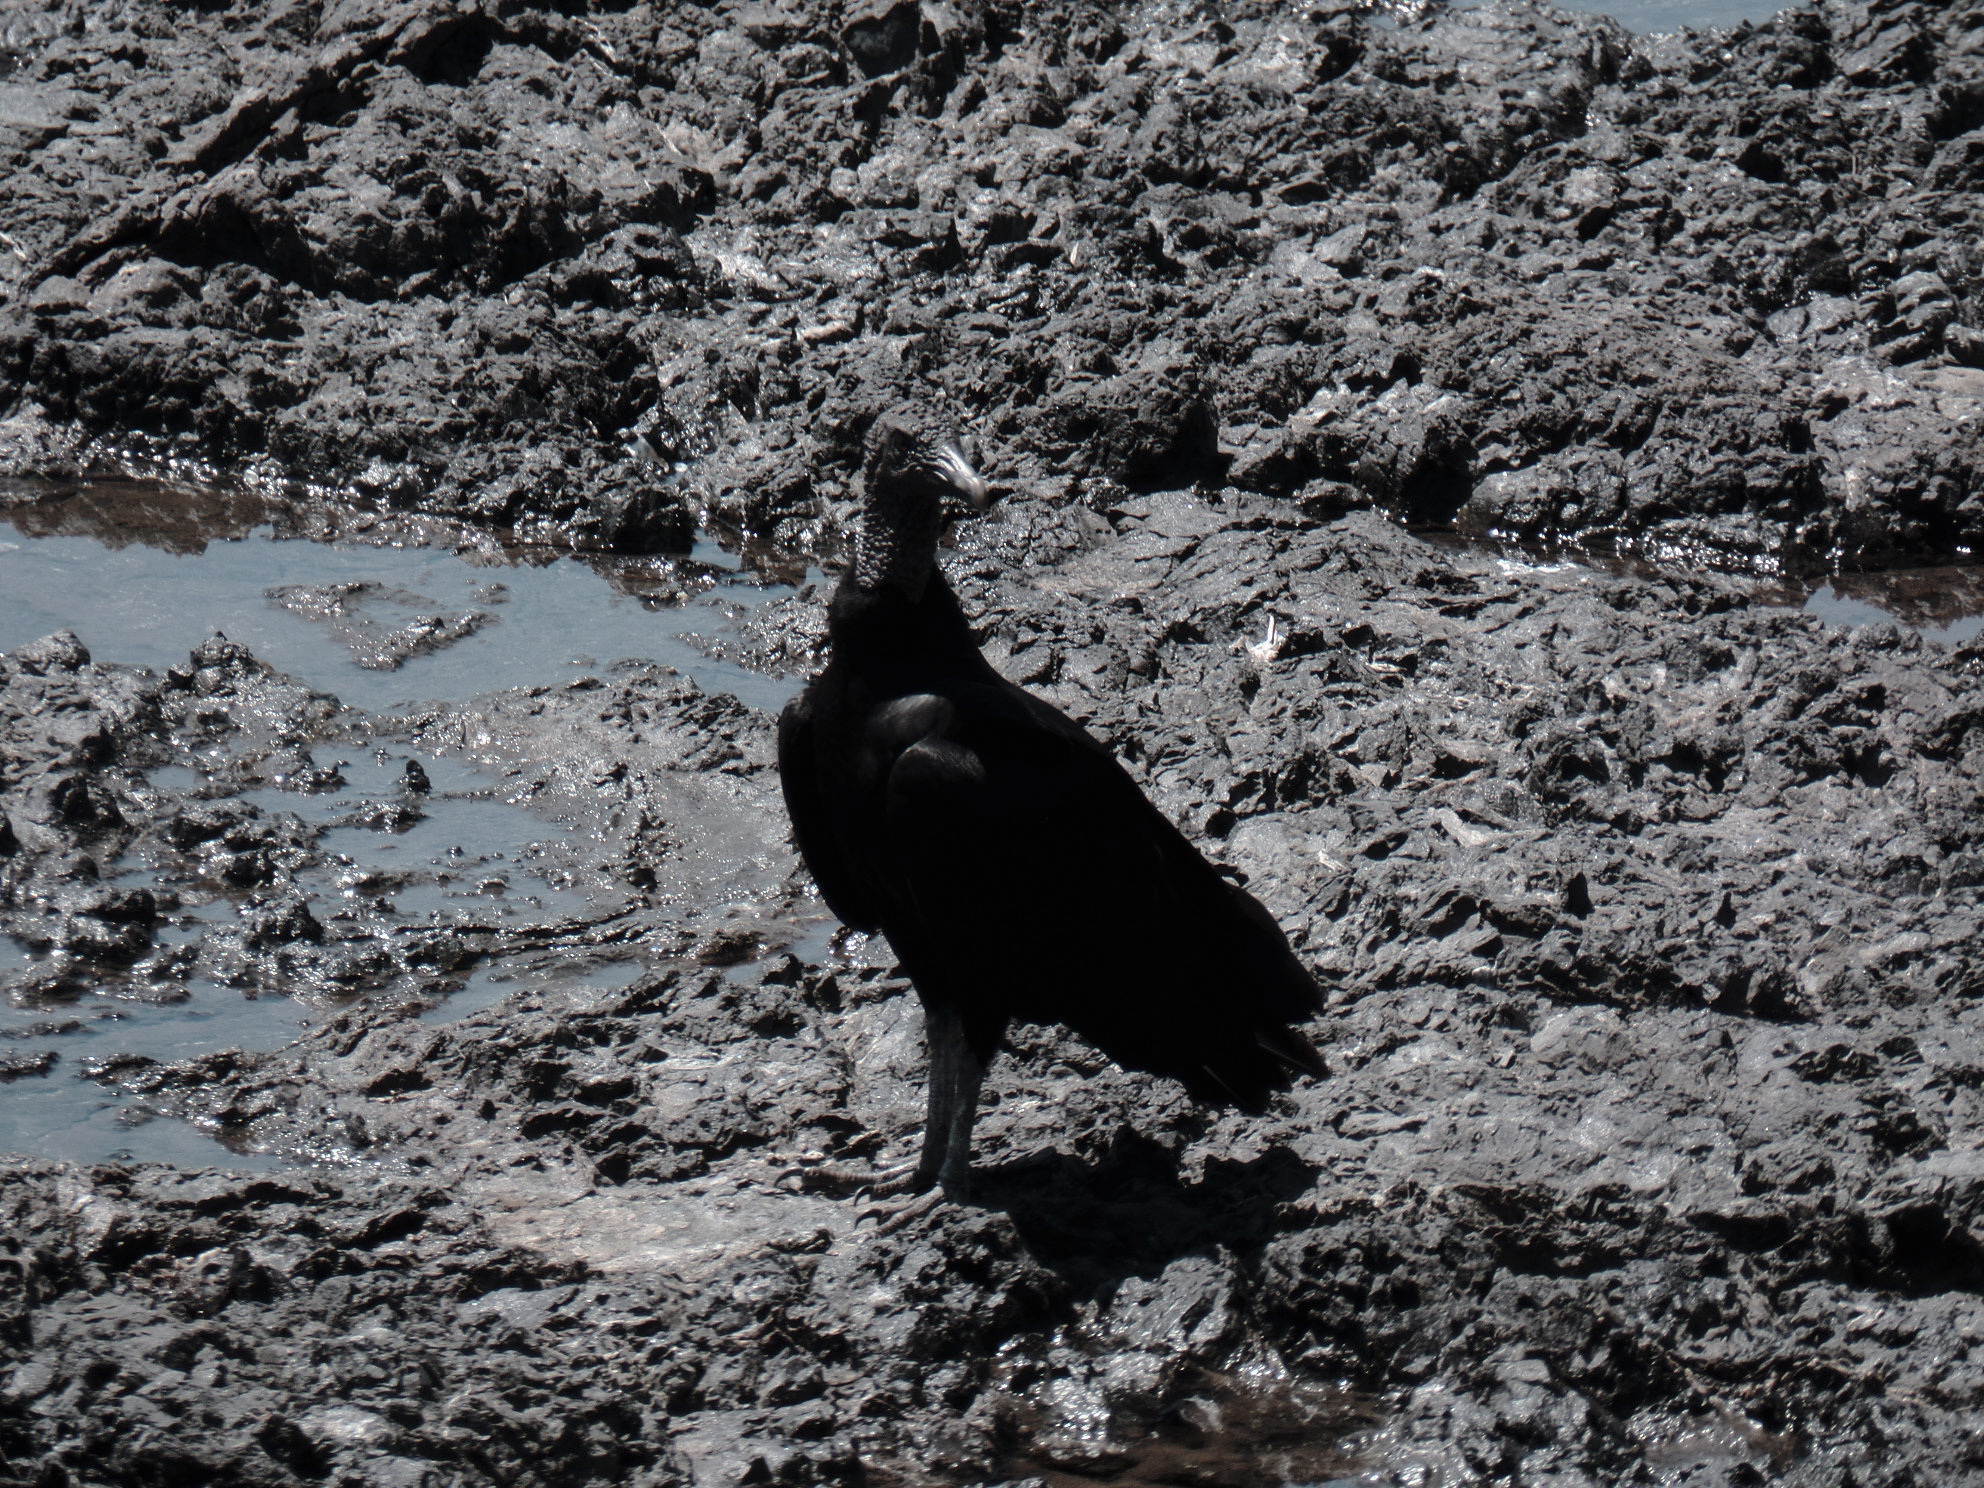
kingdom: Animalia
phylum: Chordata
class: Aves
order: Accipitriformes
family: Cathartidae
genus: Coragyps
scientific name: Coragyps atratus
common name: Black vulture
